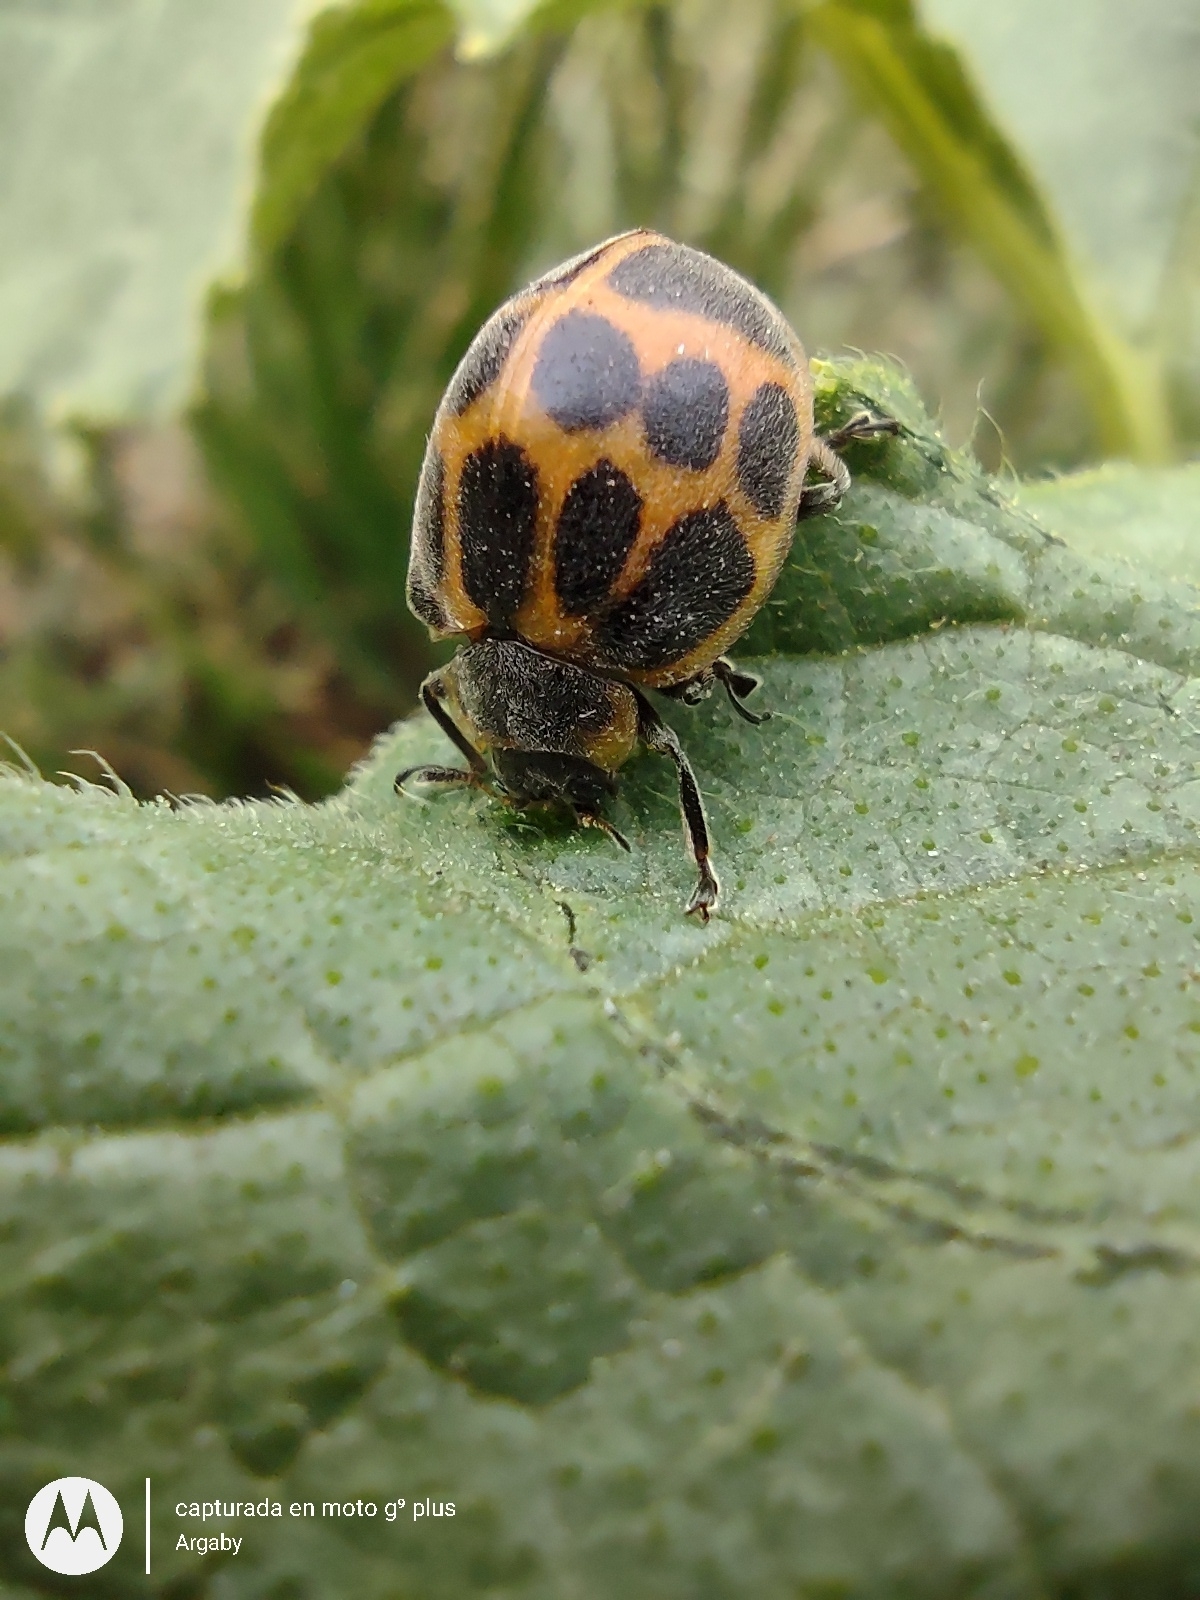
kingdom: Animalia
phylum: Arthropoda
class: Insecta
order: Coleoptera
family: Coccinellidae
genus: Epilachna
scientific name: Epilachna
